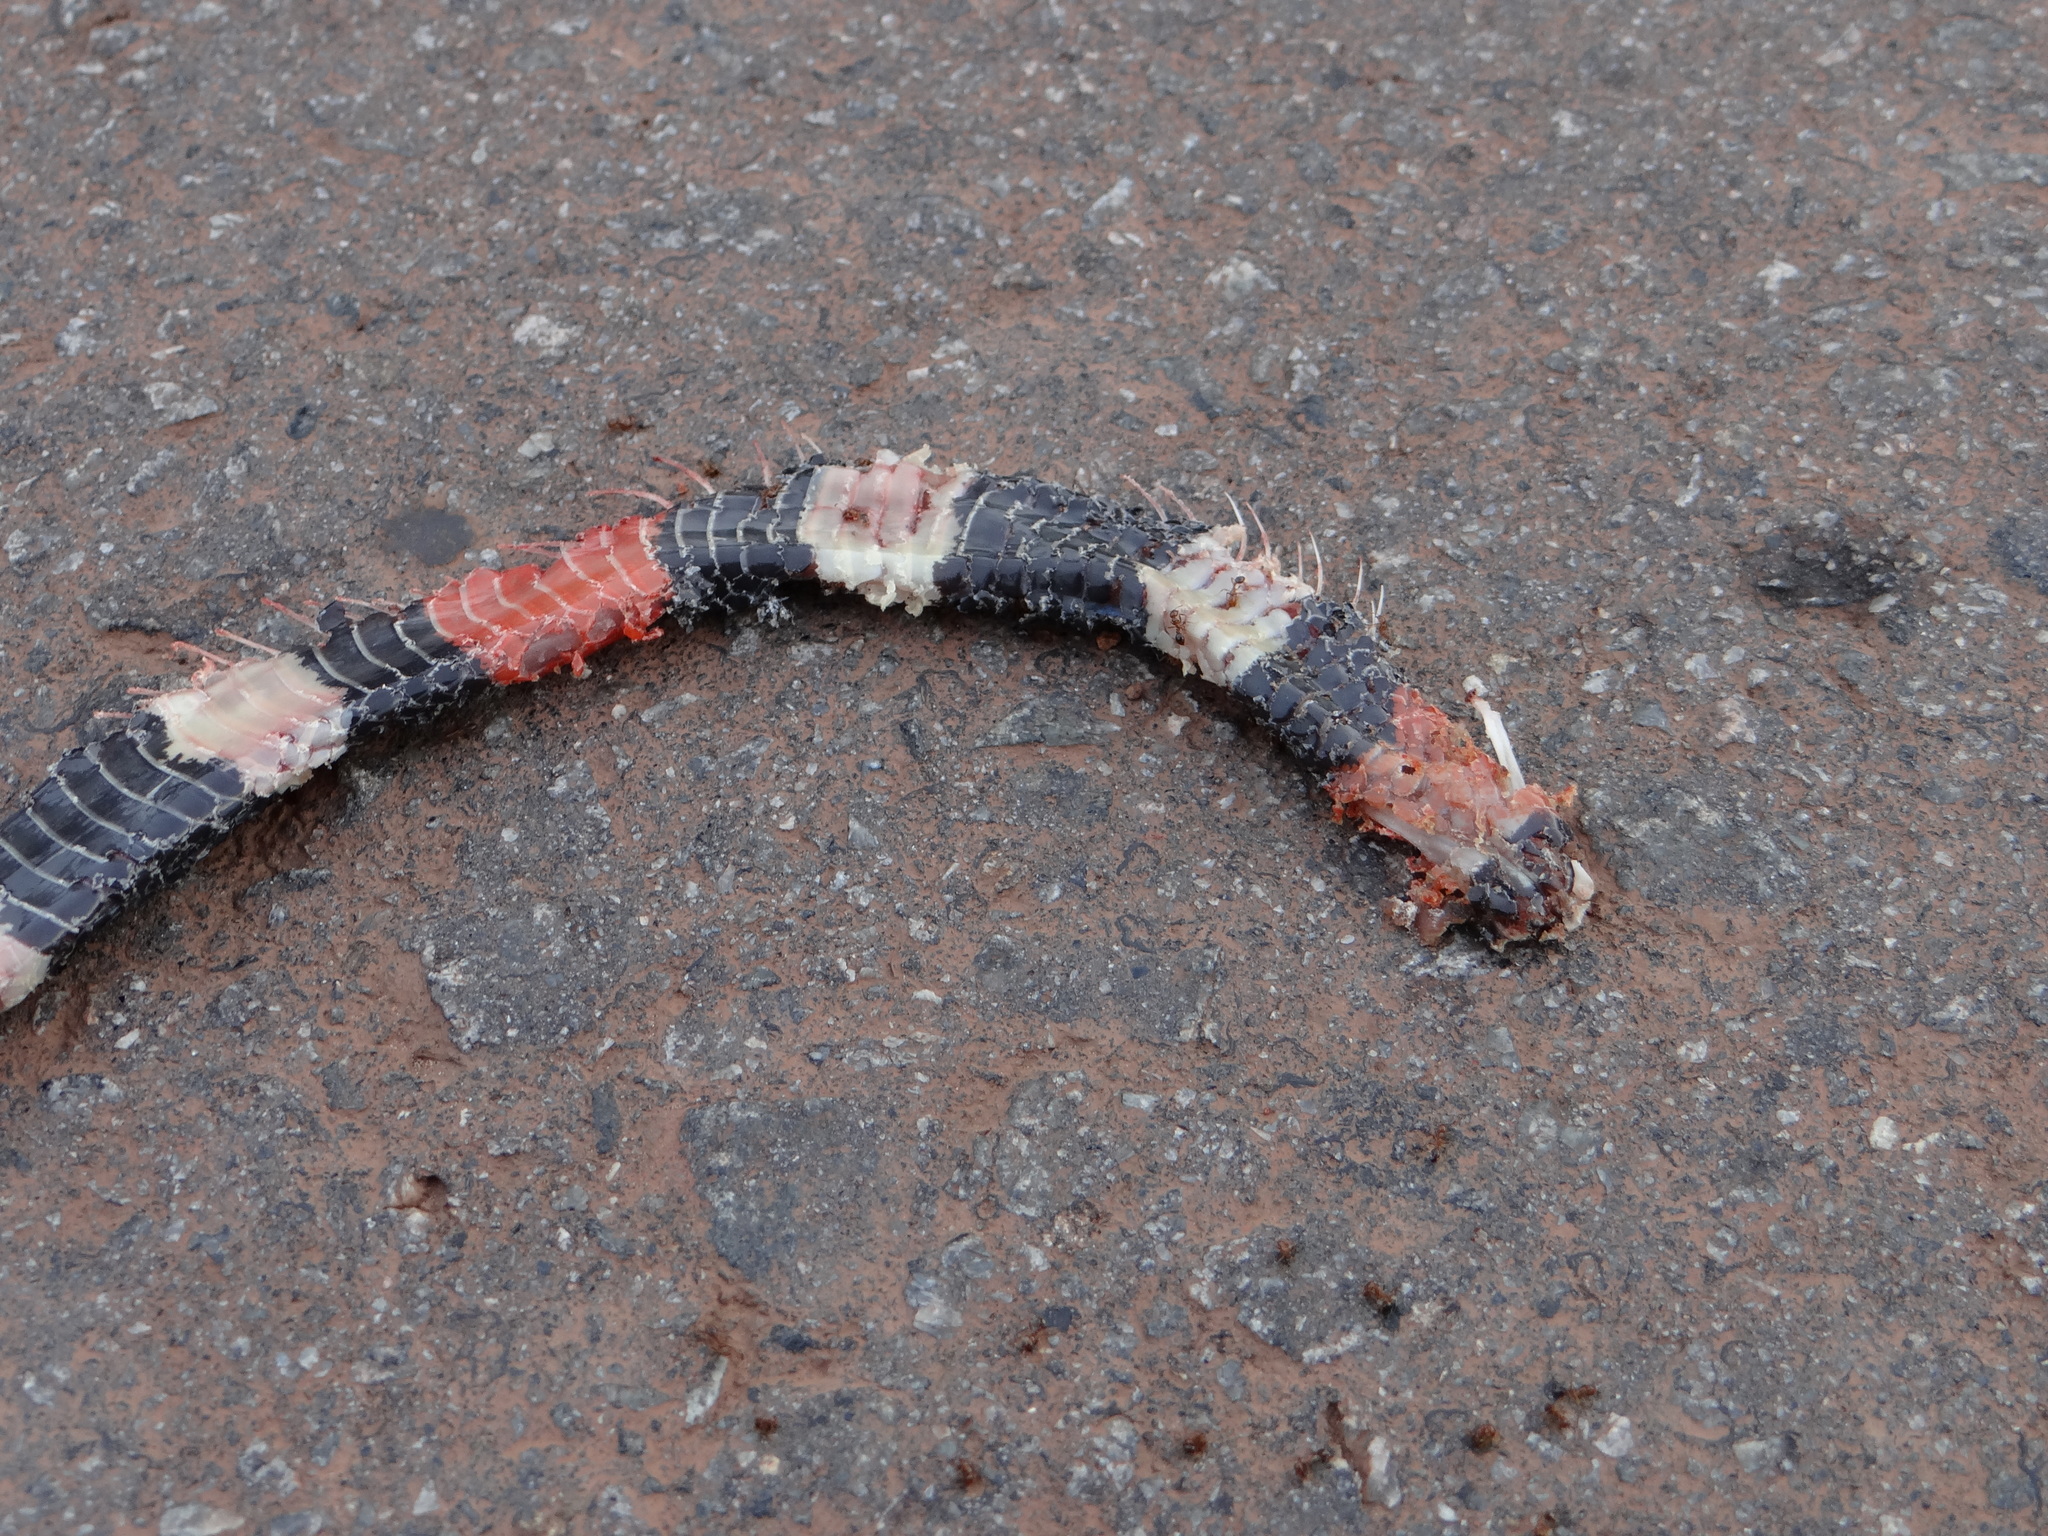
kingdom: Animalia
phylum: Chordata
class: Squamata
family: Elapidae
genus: Micrurus
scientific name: Micrurus lemniscatus
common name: South american coral snake
